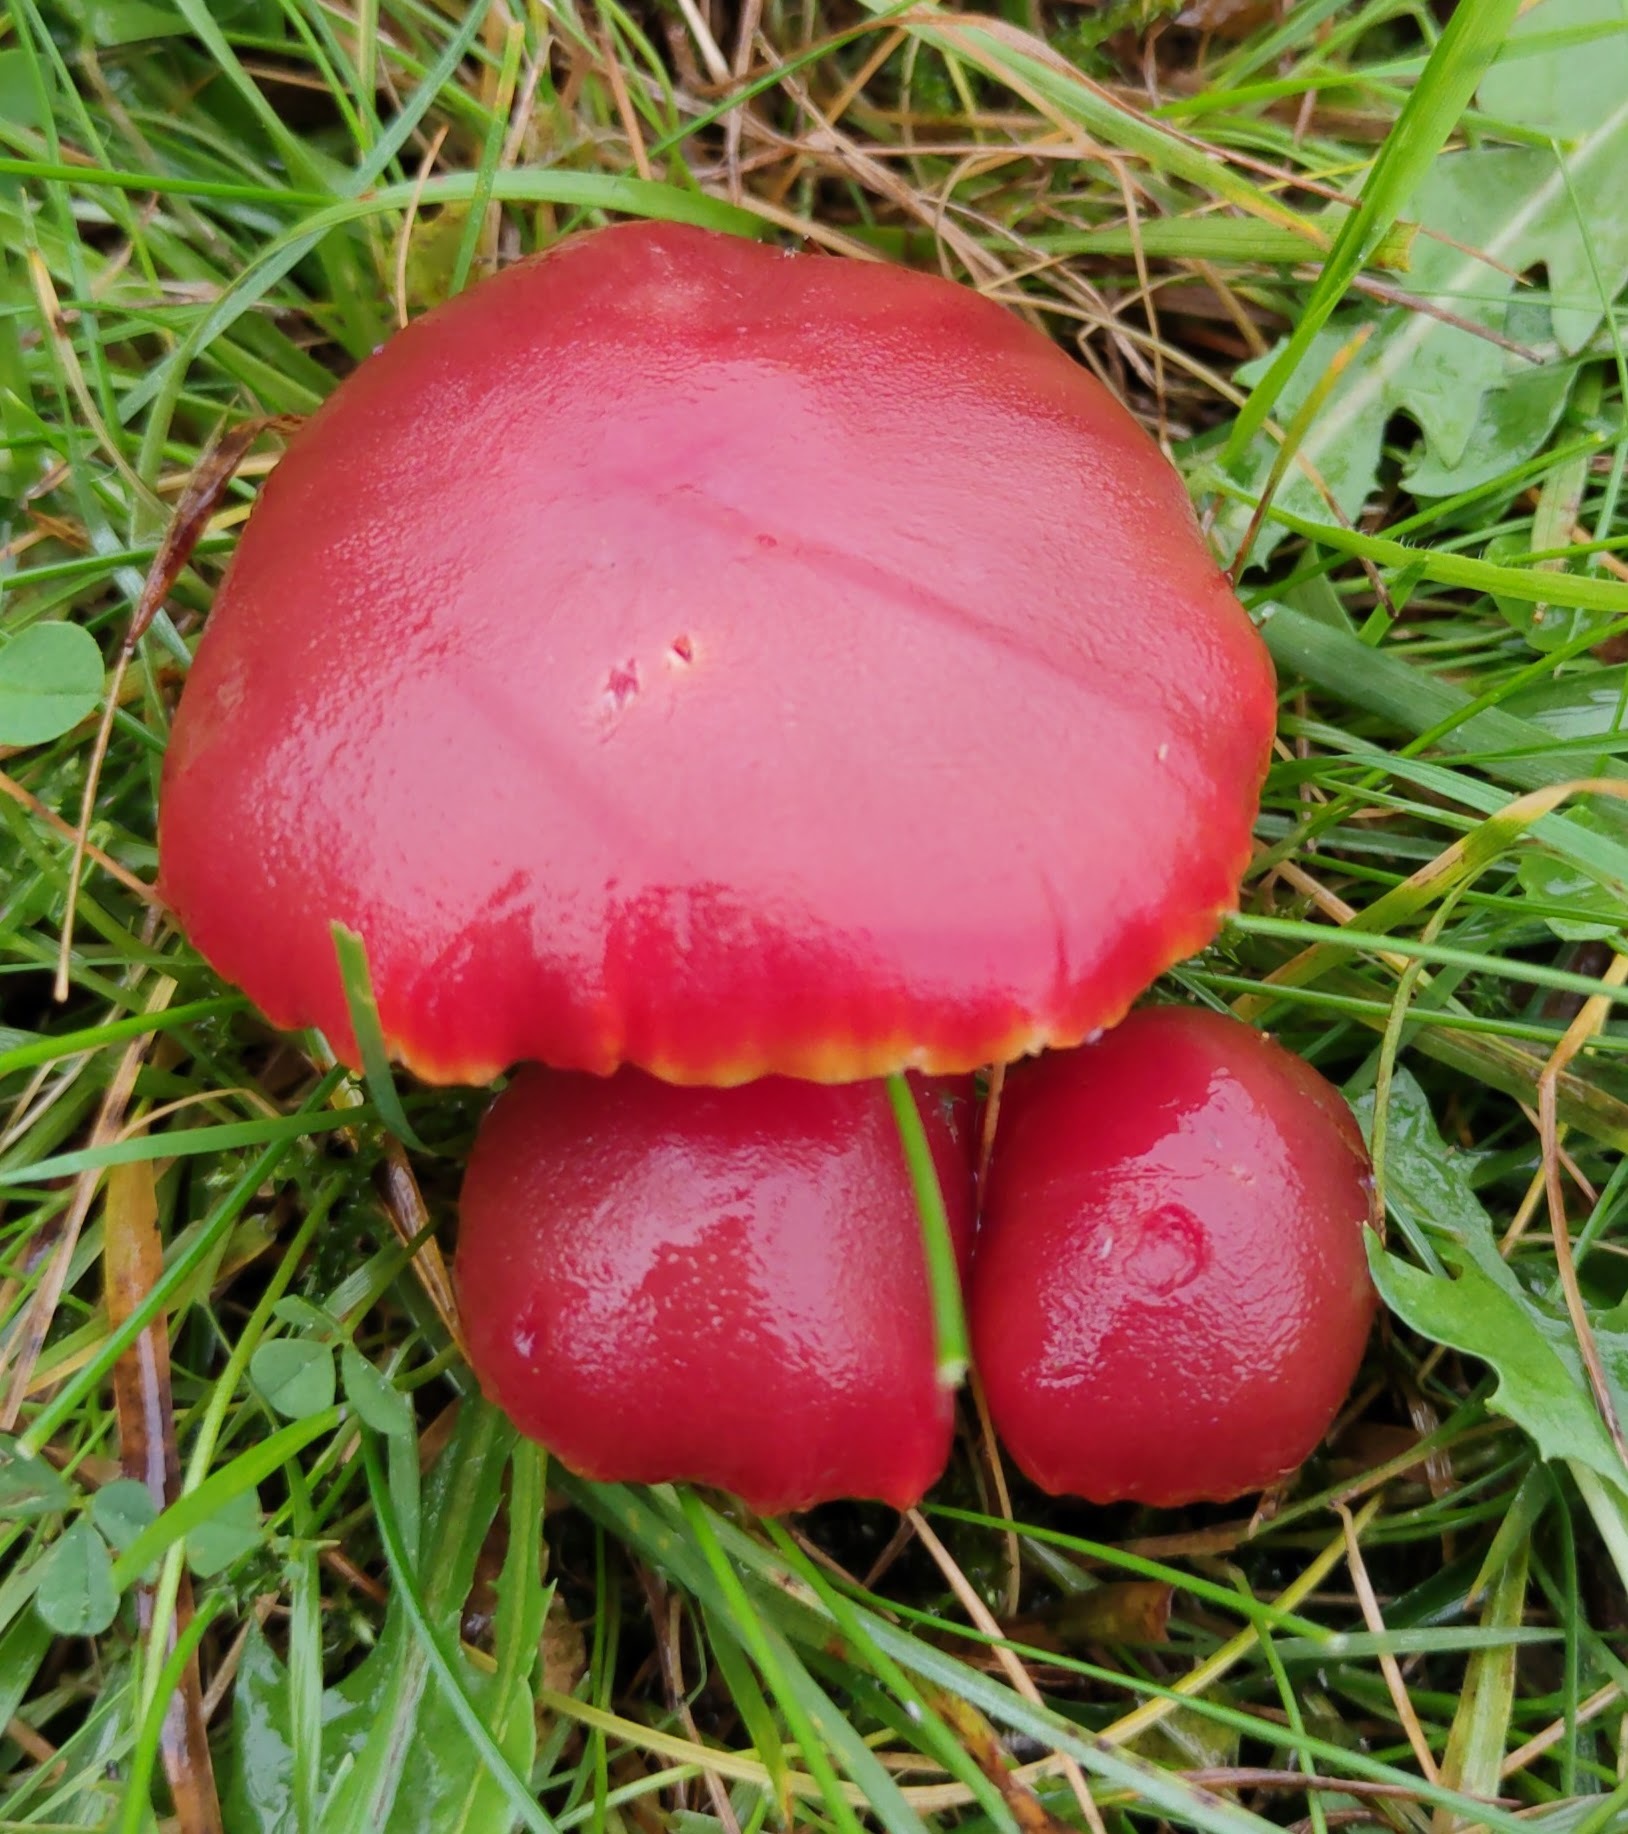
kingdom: Fungi
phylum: Basidiomycota
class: Agaricomycetes
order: Agaricales
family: Hygrophoraceae
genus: Hygrocybe
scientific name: Hygrocybe coccinea
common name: Scarlet hood
